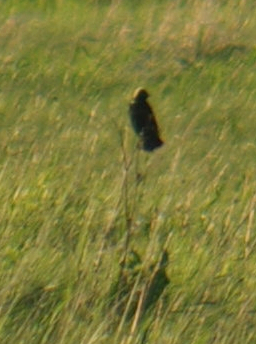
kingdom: Animalia
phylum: Chordata
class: Aves
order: Passeriformes
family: Icteridae
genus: Dolichonyx
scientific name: Dolichonyx oryzivorus
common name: Bobolink
